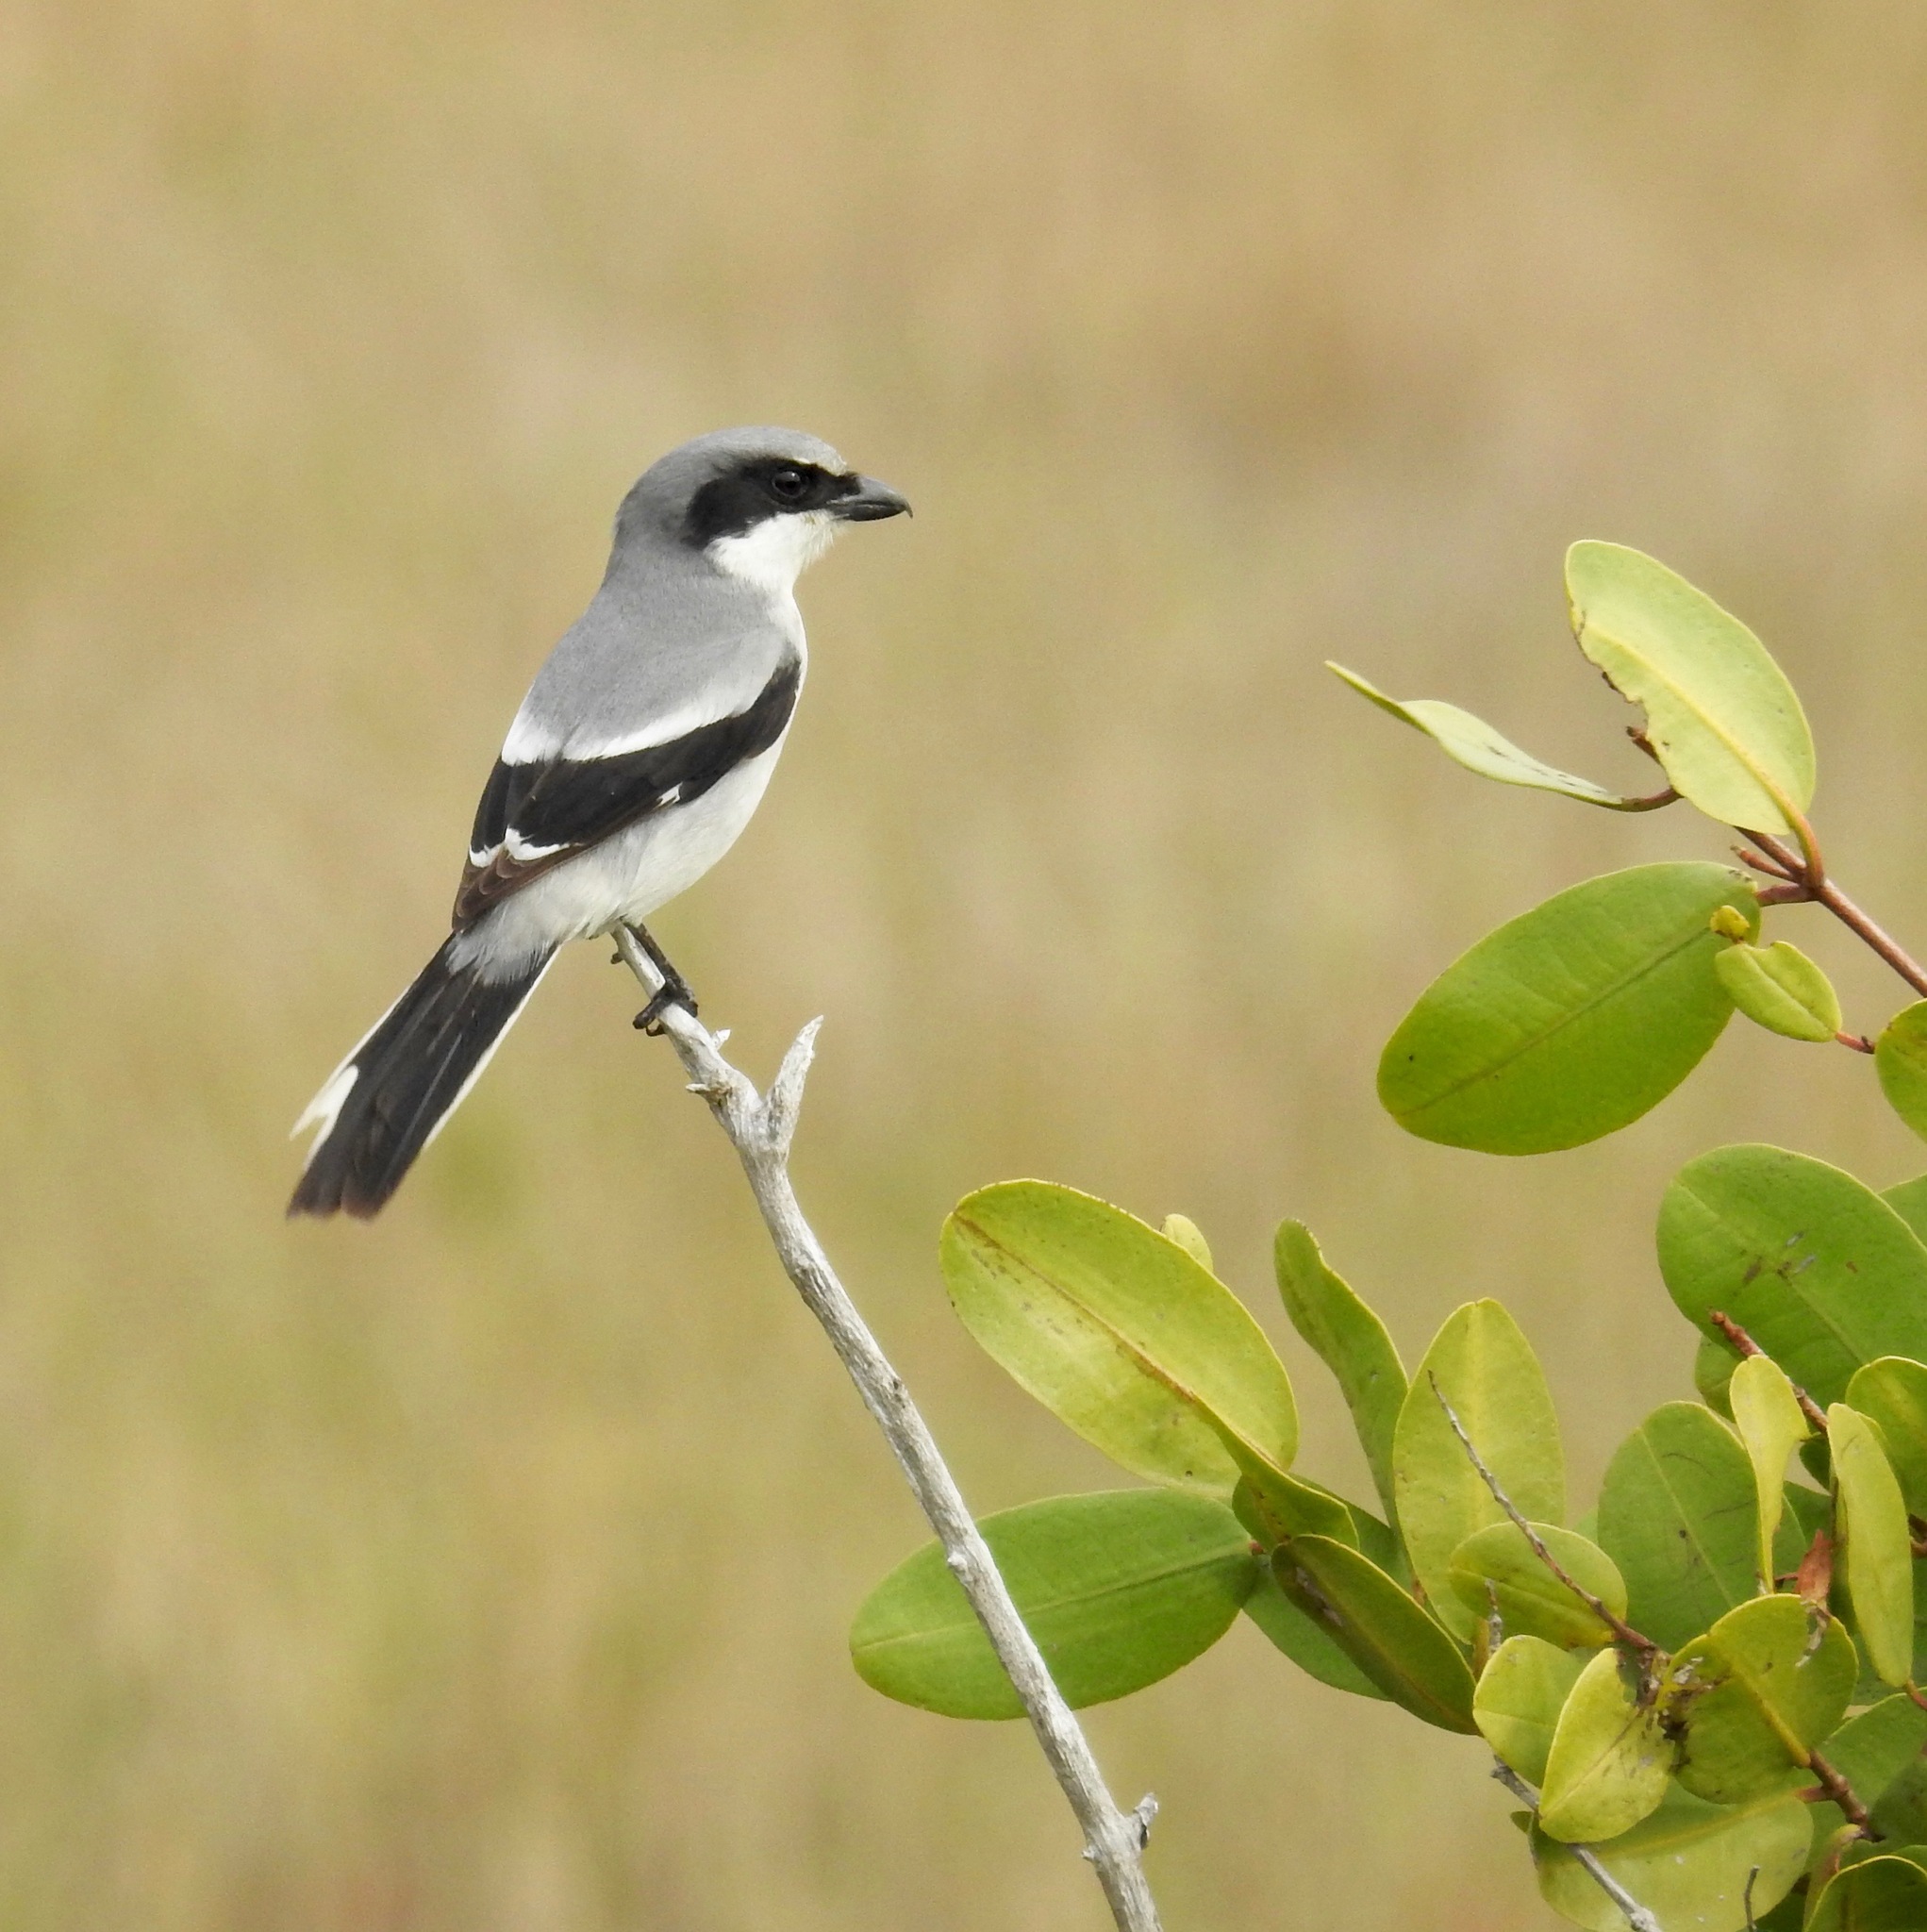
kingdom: Animalia
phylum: Chordata
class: Aves
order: Passeriformes
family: Laniidae
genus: Lanius
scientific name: Lanius ludovicianus
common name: Loggerhead shrike
